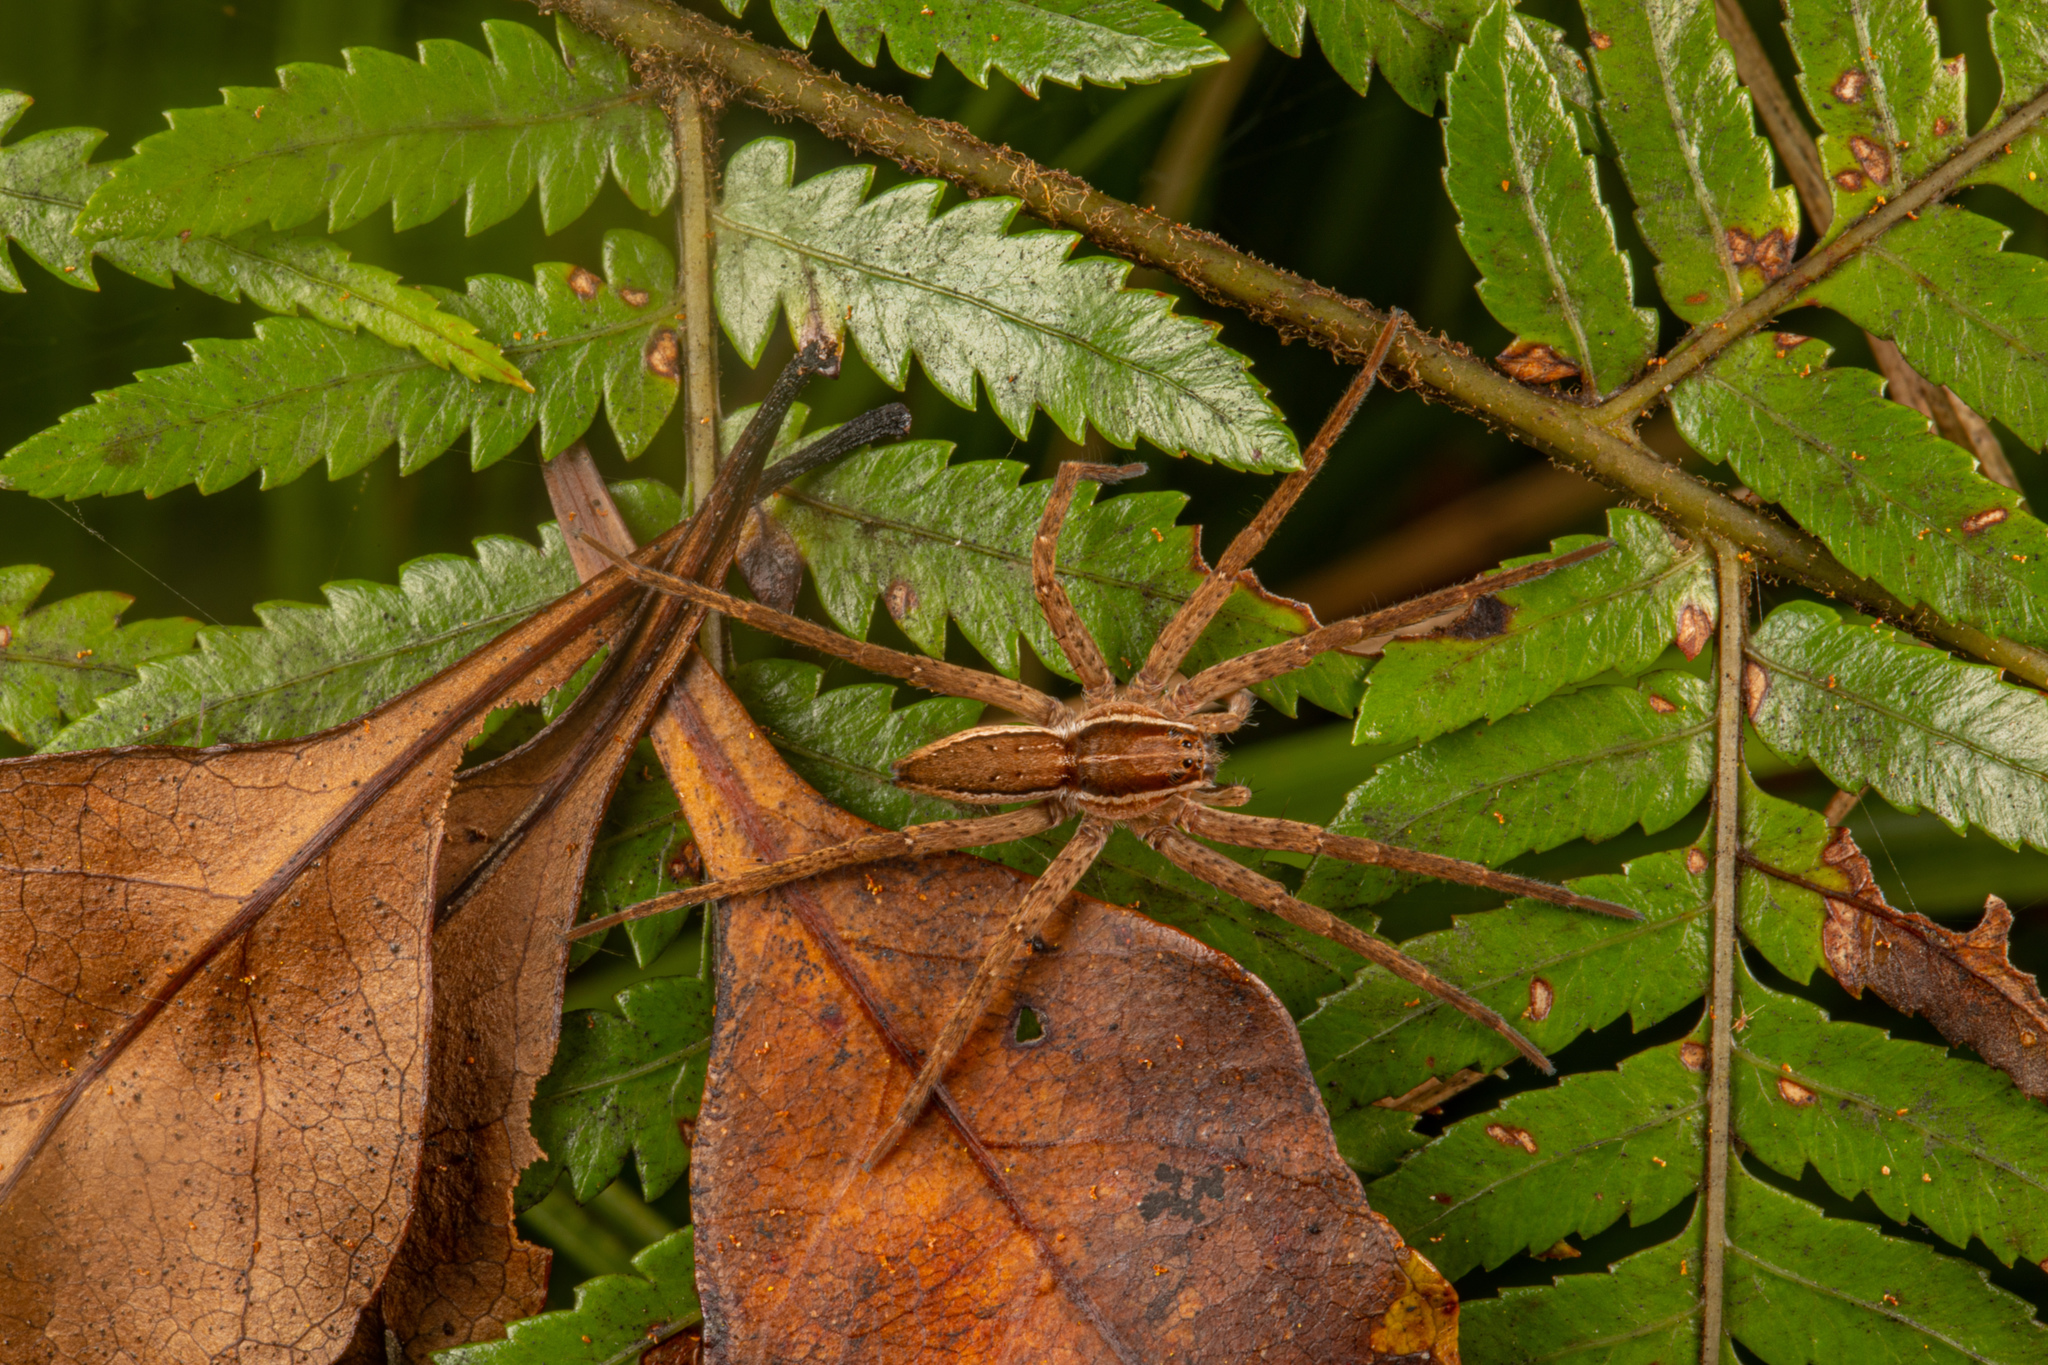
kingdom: Animalia
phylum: Arthropoda
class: Arachnida
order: Araneae
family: Pisauridae
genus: Dolomedes
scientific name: Dolomedes minor
